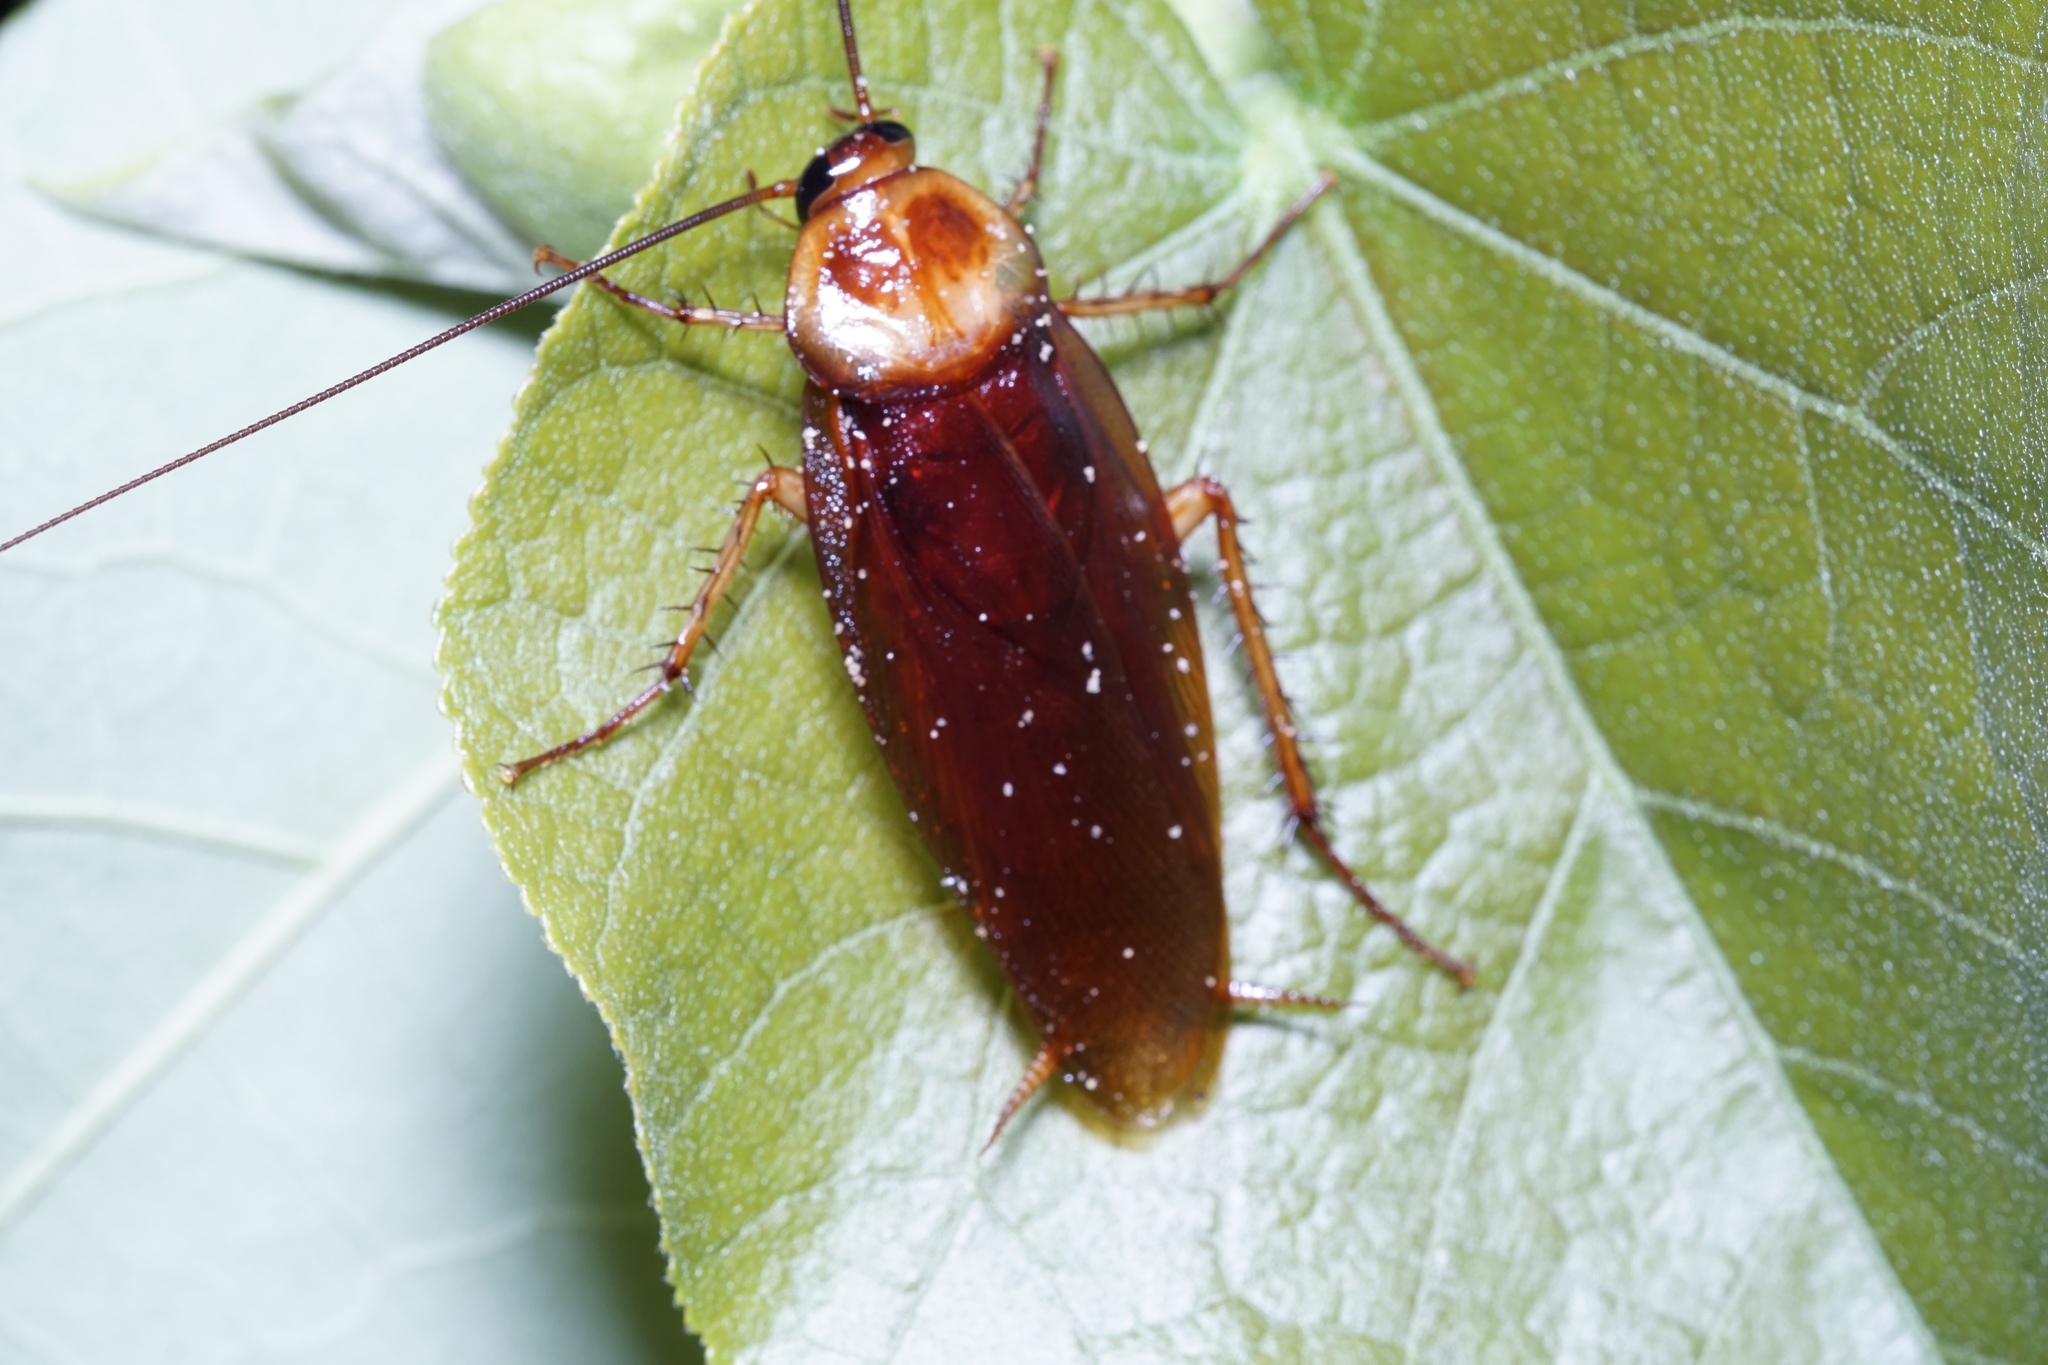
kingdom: Animalia
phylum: Arthropoda
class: Insecta
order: Blattodea
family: Blattidae
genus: Periplaneta
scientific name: Periplaneta americana
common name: American cockroach
